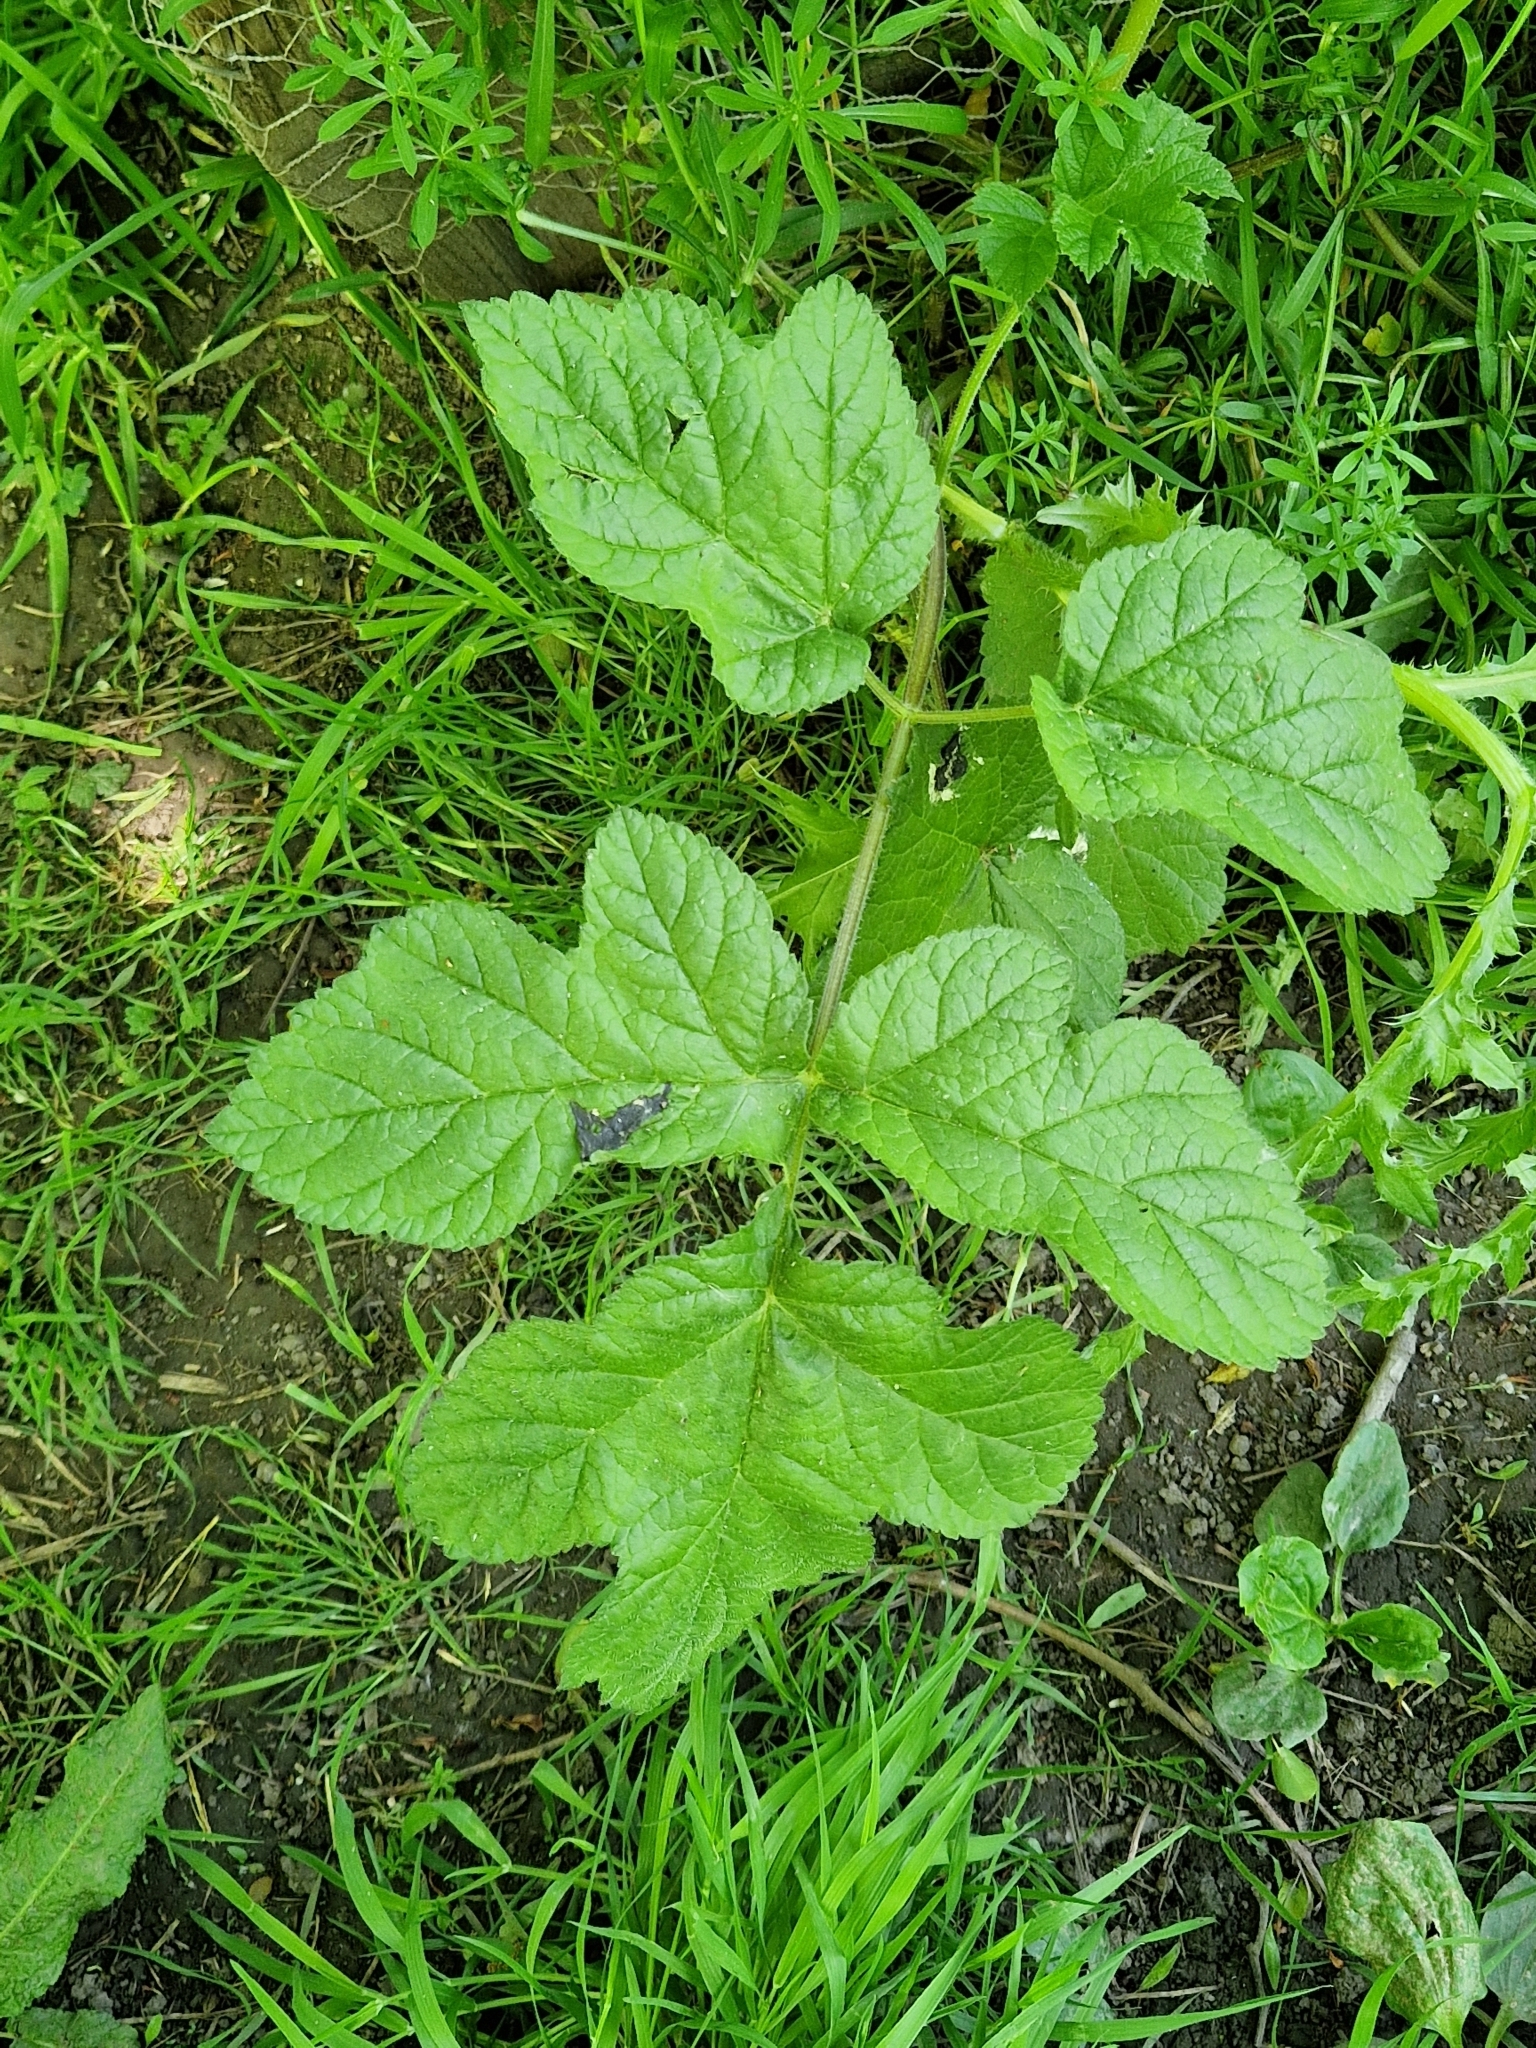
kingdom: Plantae
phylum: Tracheophyta
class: Magnoliopsida
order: Apiales
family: Apiaceae
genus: Heracleum
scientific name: Heracleum sphondylium
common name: Hogweed
